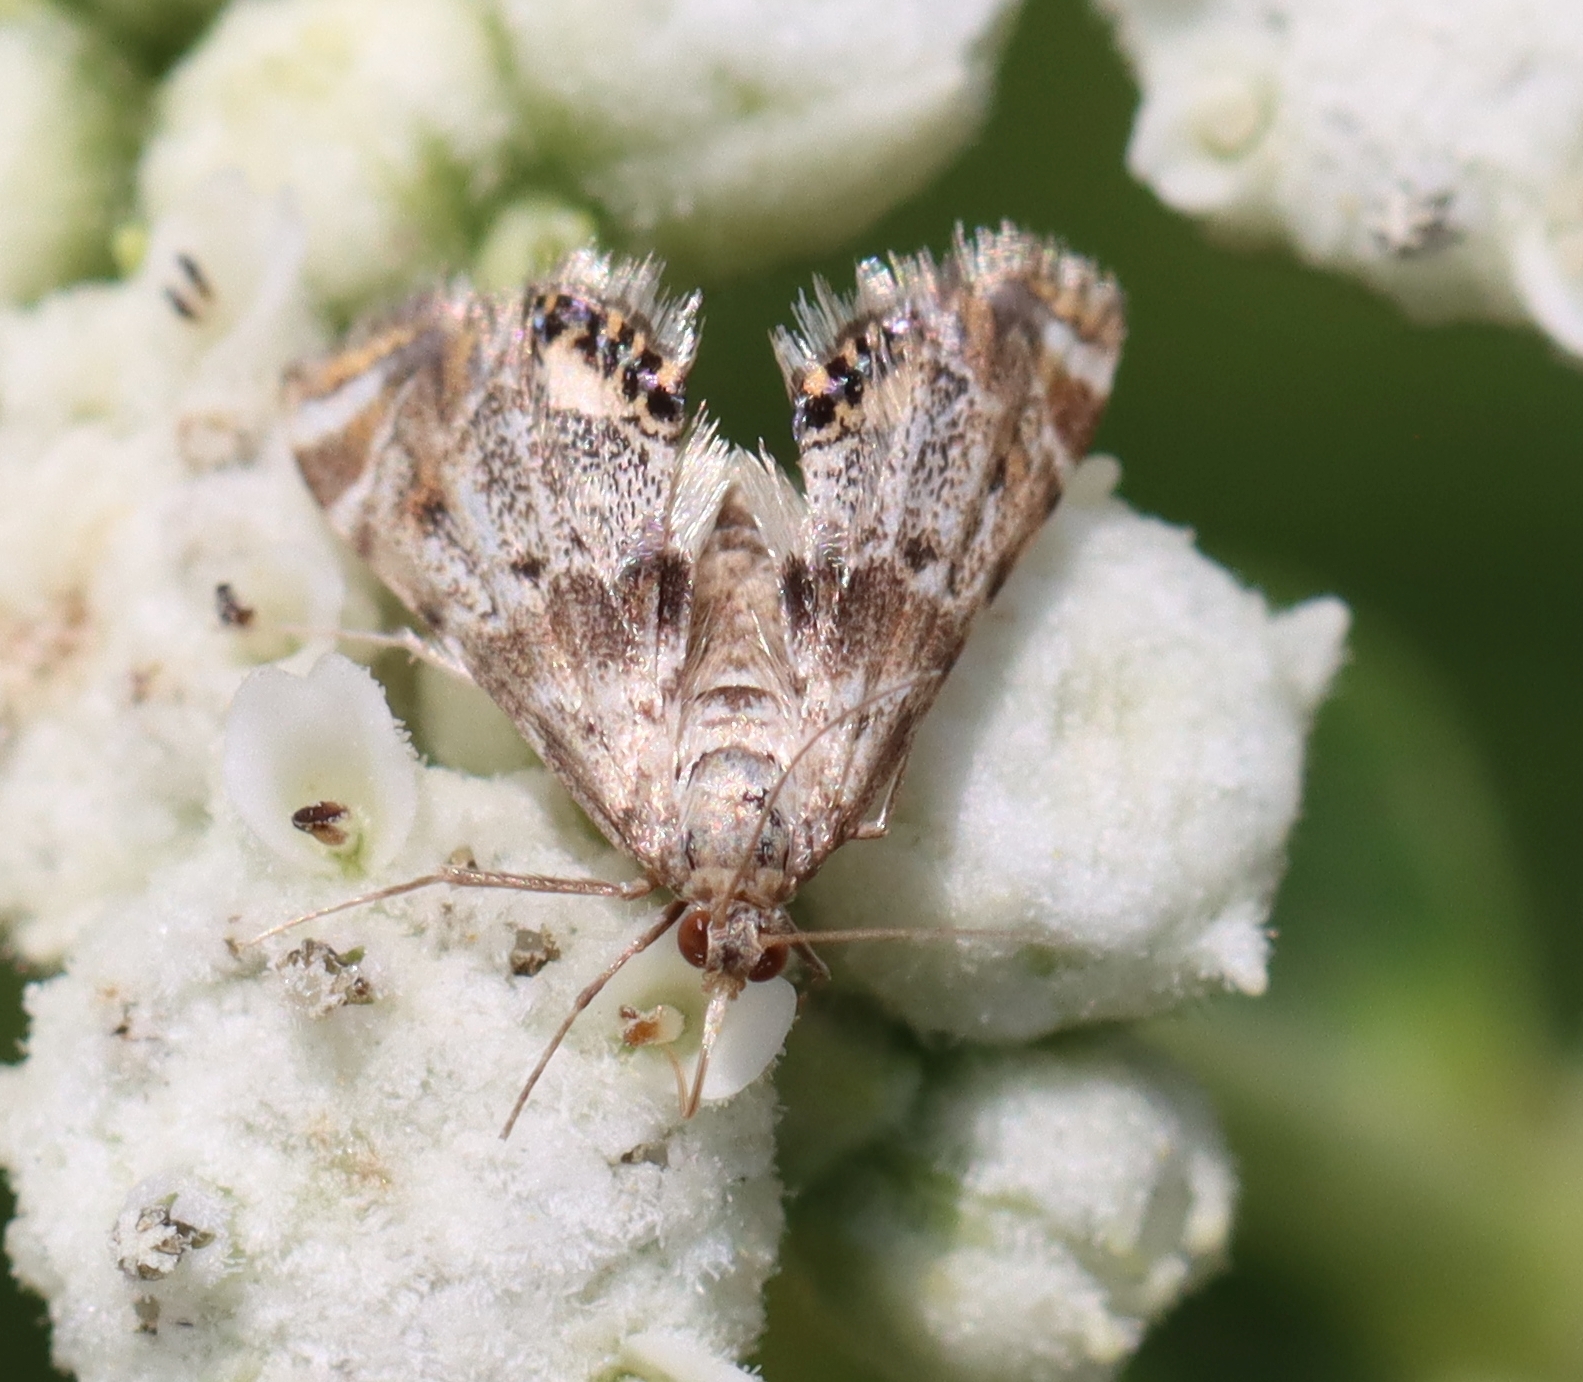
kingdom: Animalia
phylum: Arthropoda
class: Insecta
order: Lepidoptera
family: Crambidae
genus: Petrophila
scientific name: Petrophila fulicalis
